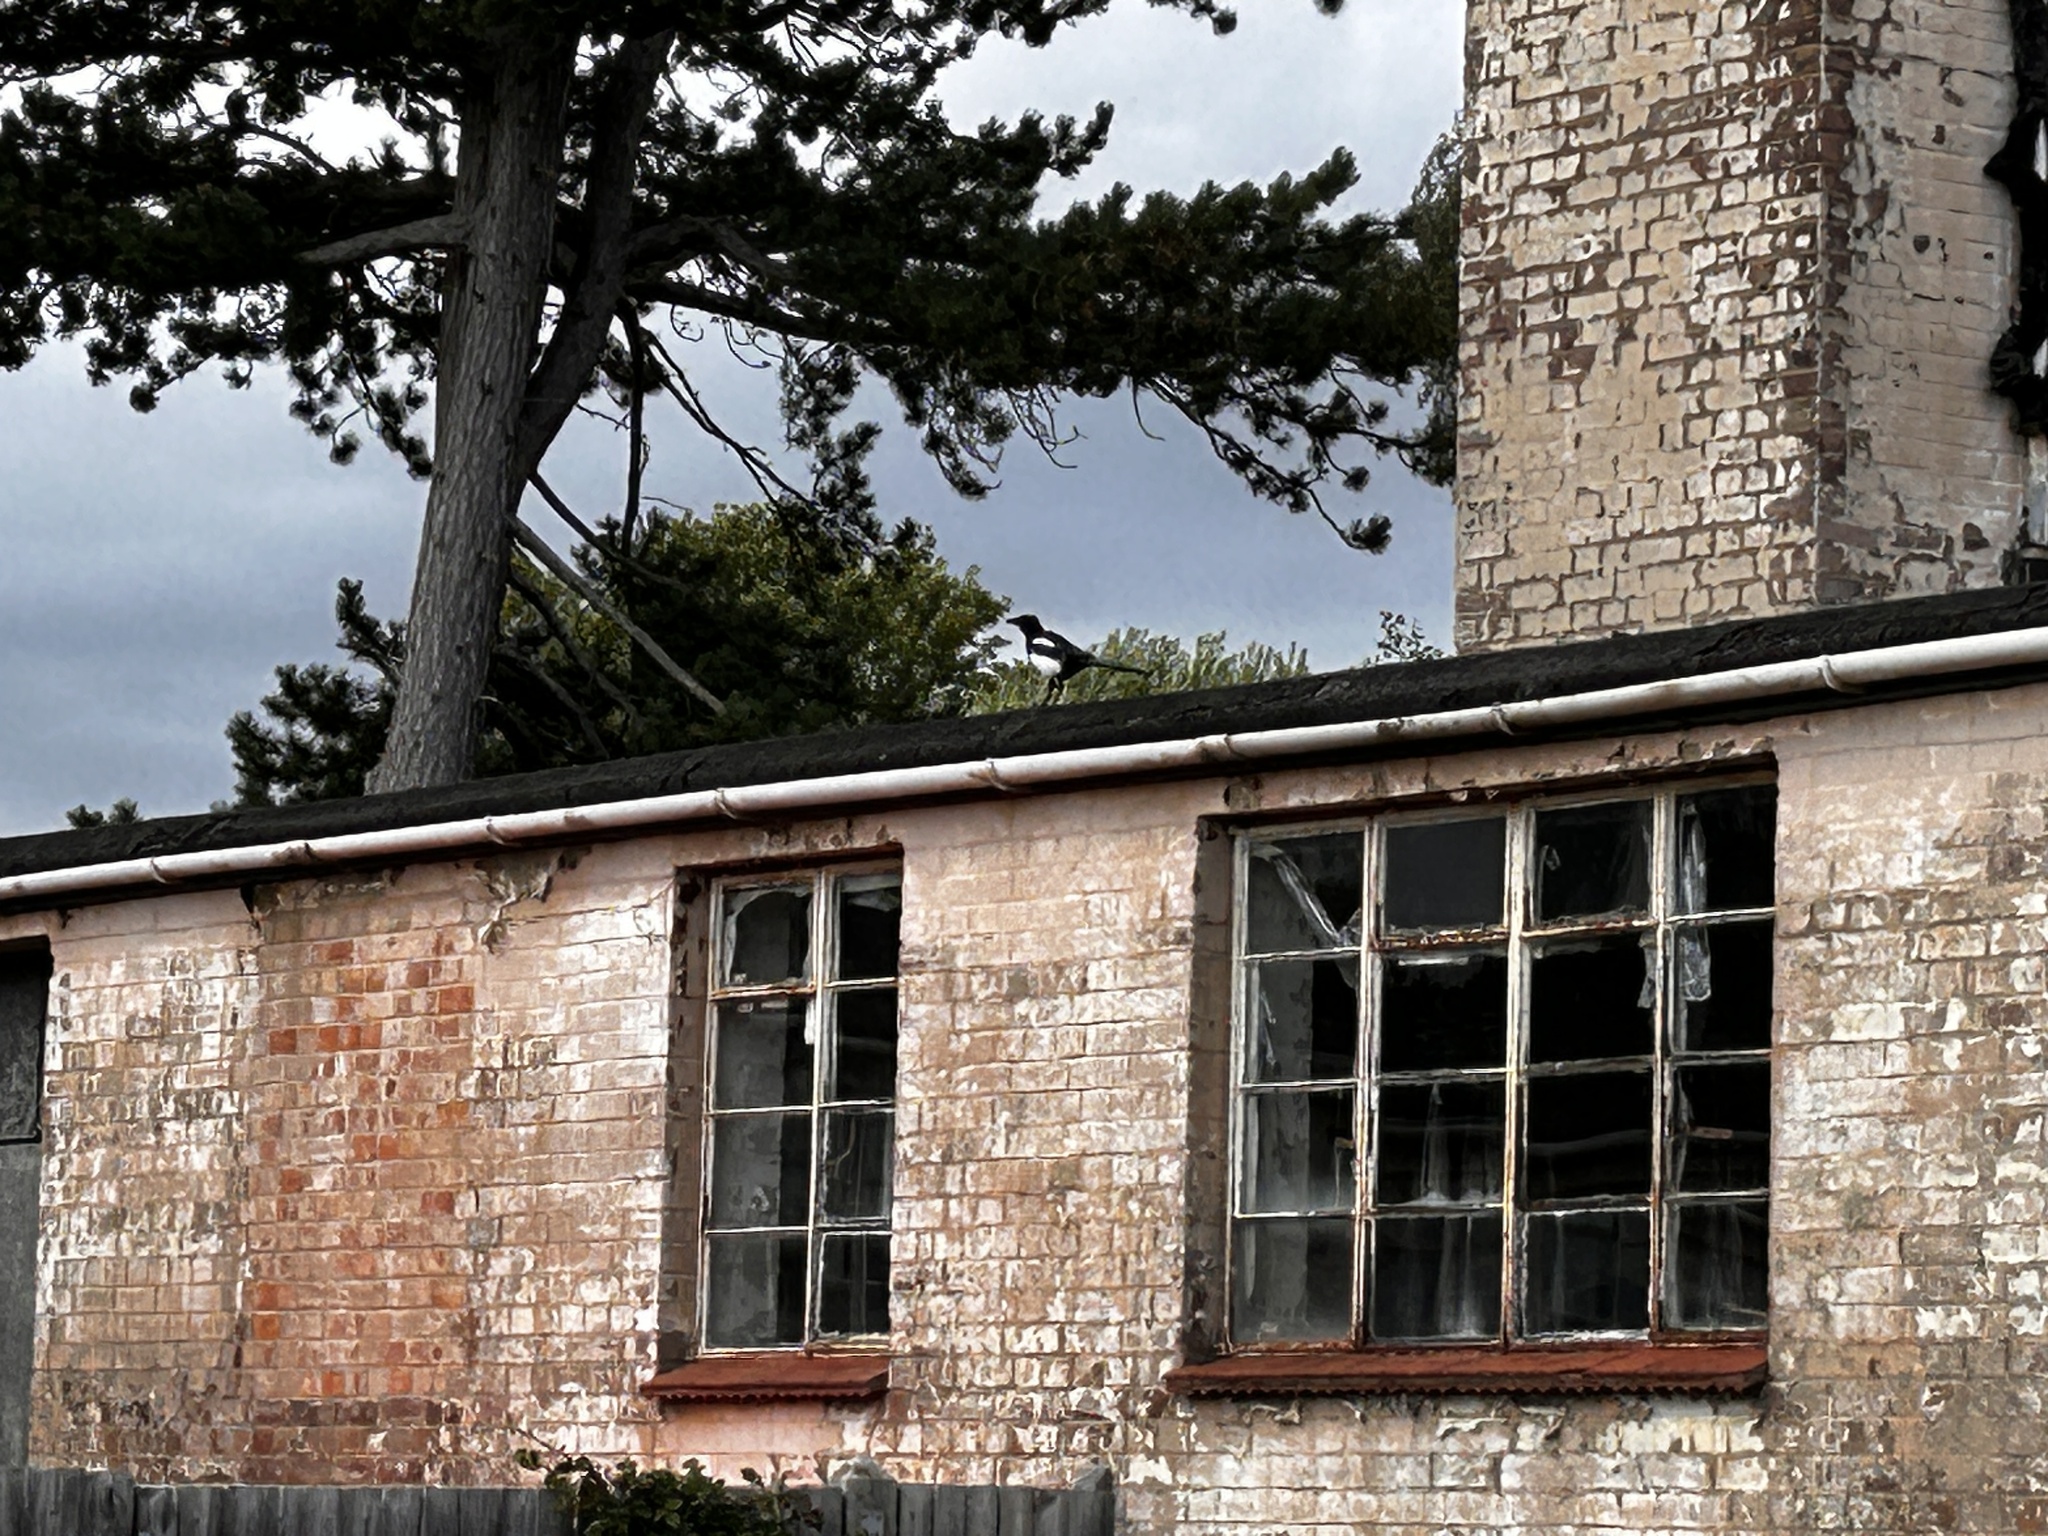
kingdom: Animalia
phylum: Chordata
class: Aves
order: Passeriformes
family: Corvidae
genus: Pica
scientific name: Pica pica
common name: Eurasian magpie
